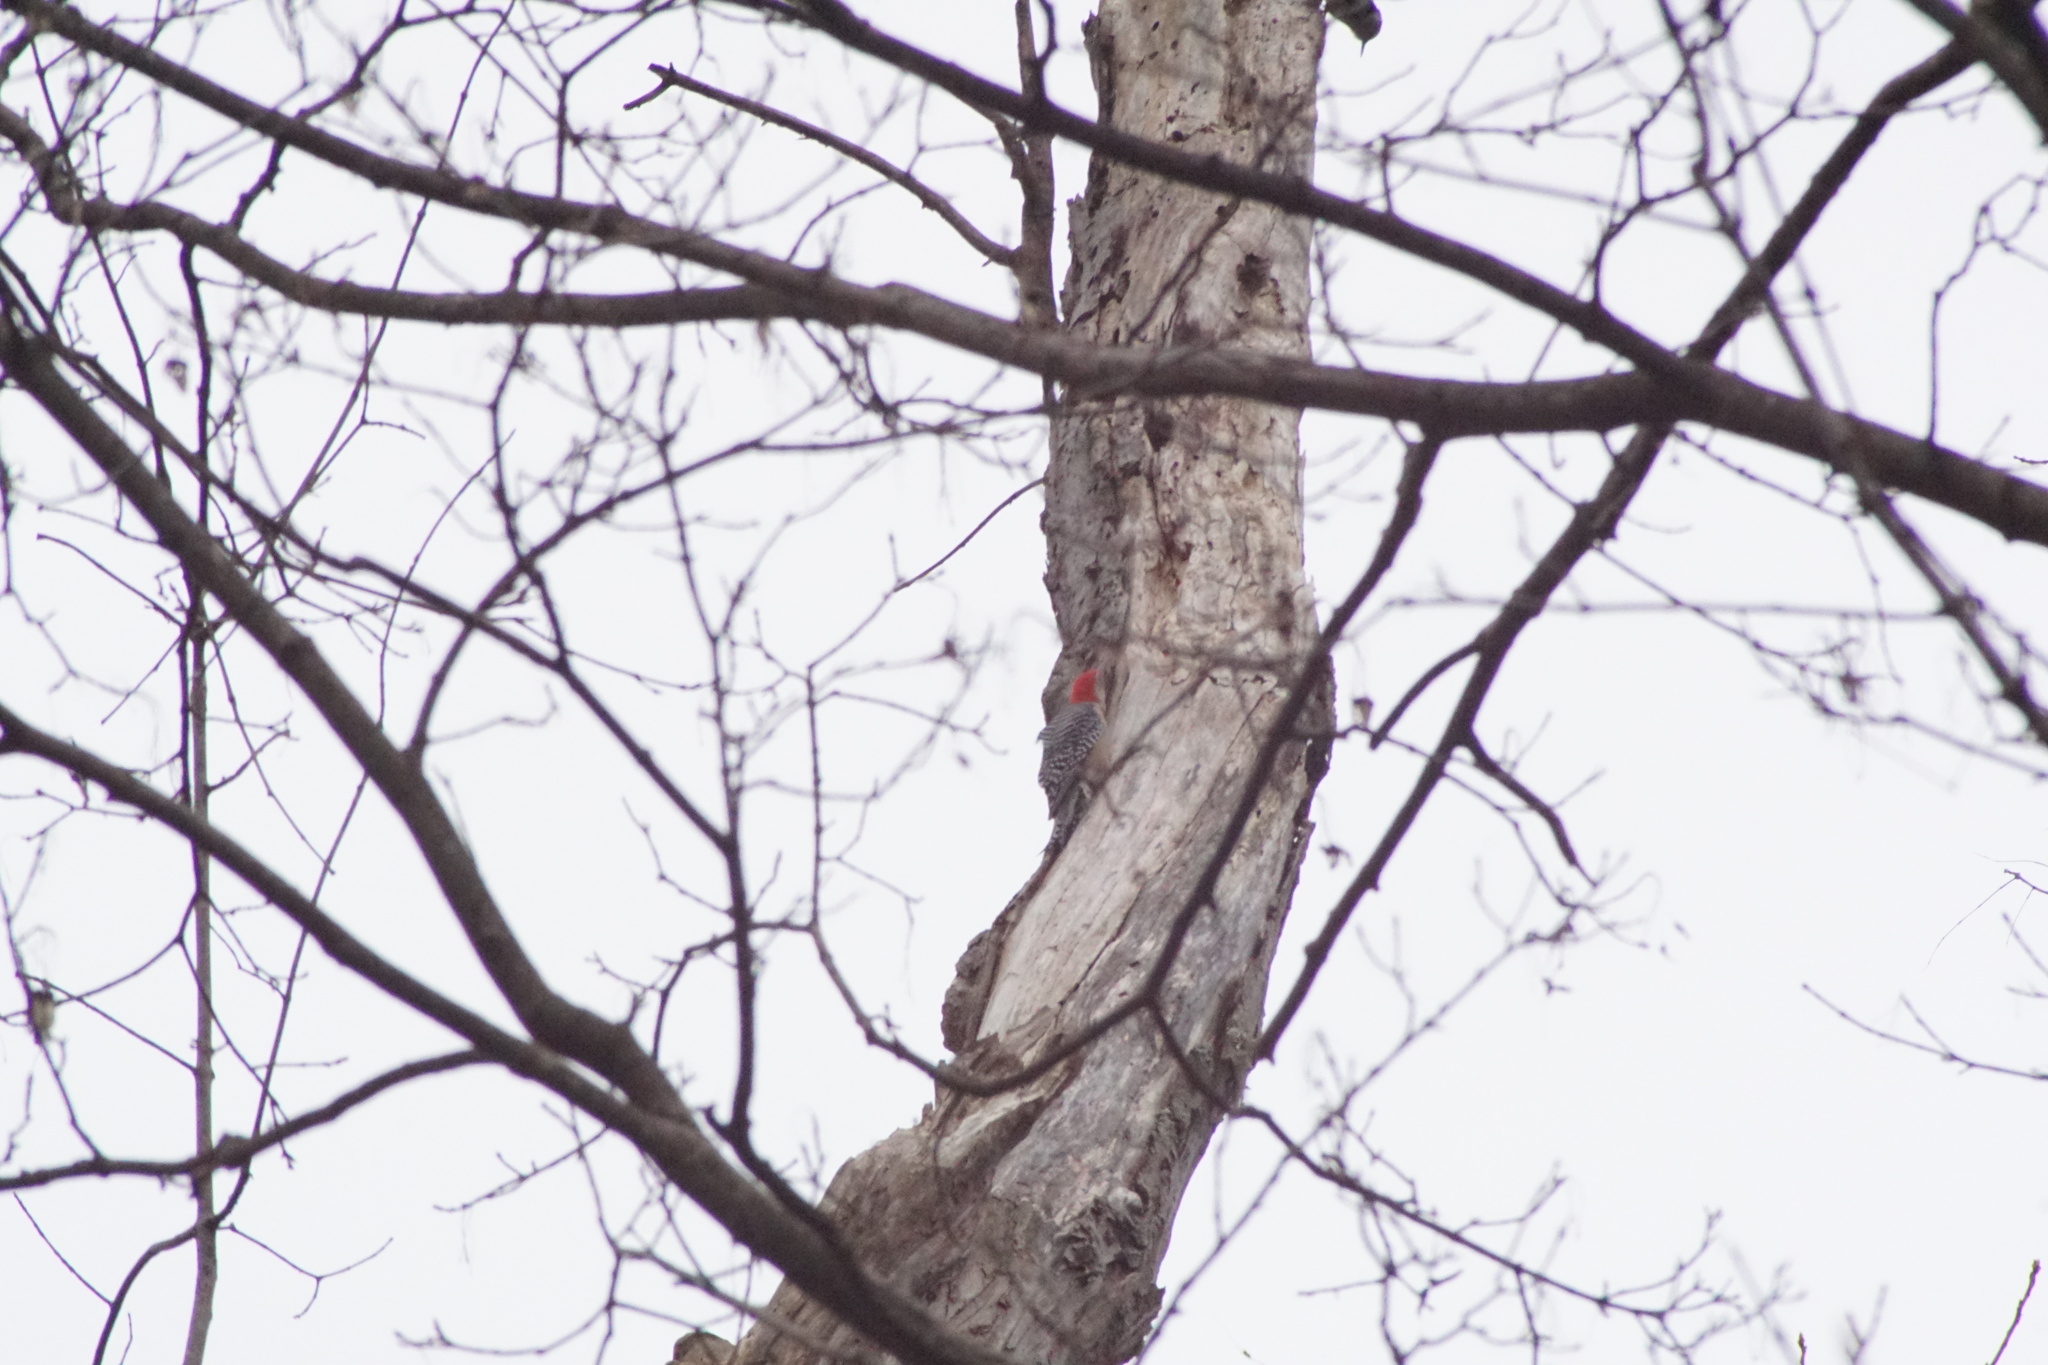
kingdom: Animalia
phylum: Chordata
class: Aves
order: Piciformes
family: Picidae
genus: Melanerpes
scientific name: Melanerpes carolinus
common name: Red-bellied woodpecker
